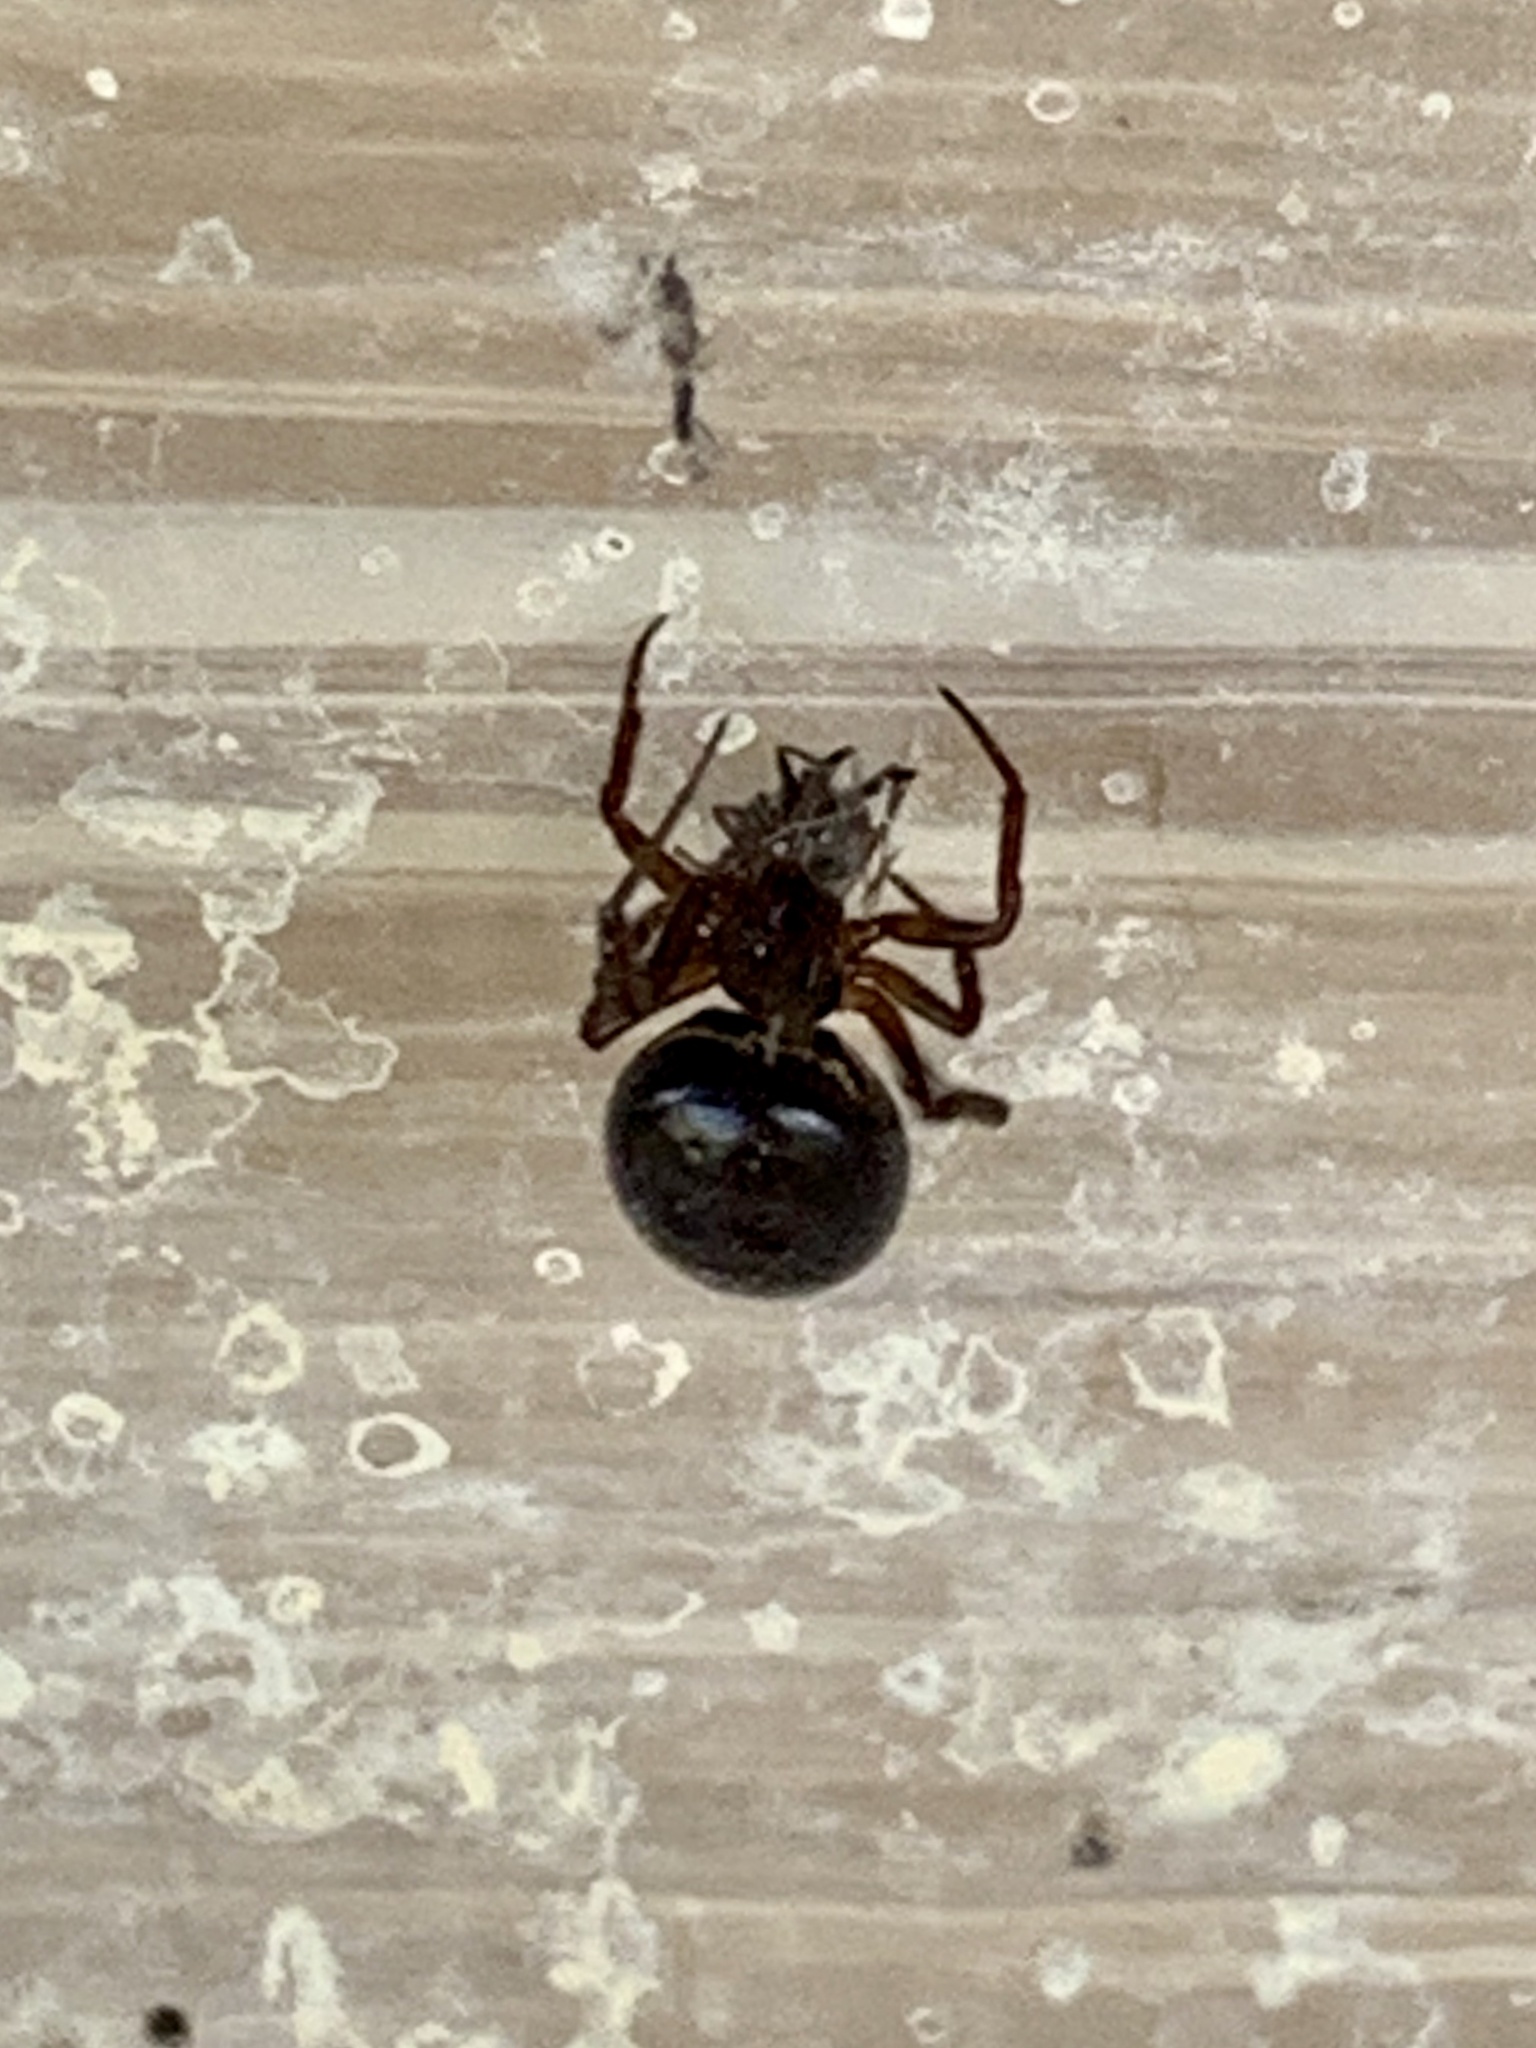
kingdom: Animalia
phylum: Arthropoda
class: Arachnida
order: Araneae
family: Theridiidae
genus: Steatoda
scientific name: Steatoda grossa
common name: False black widow
